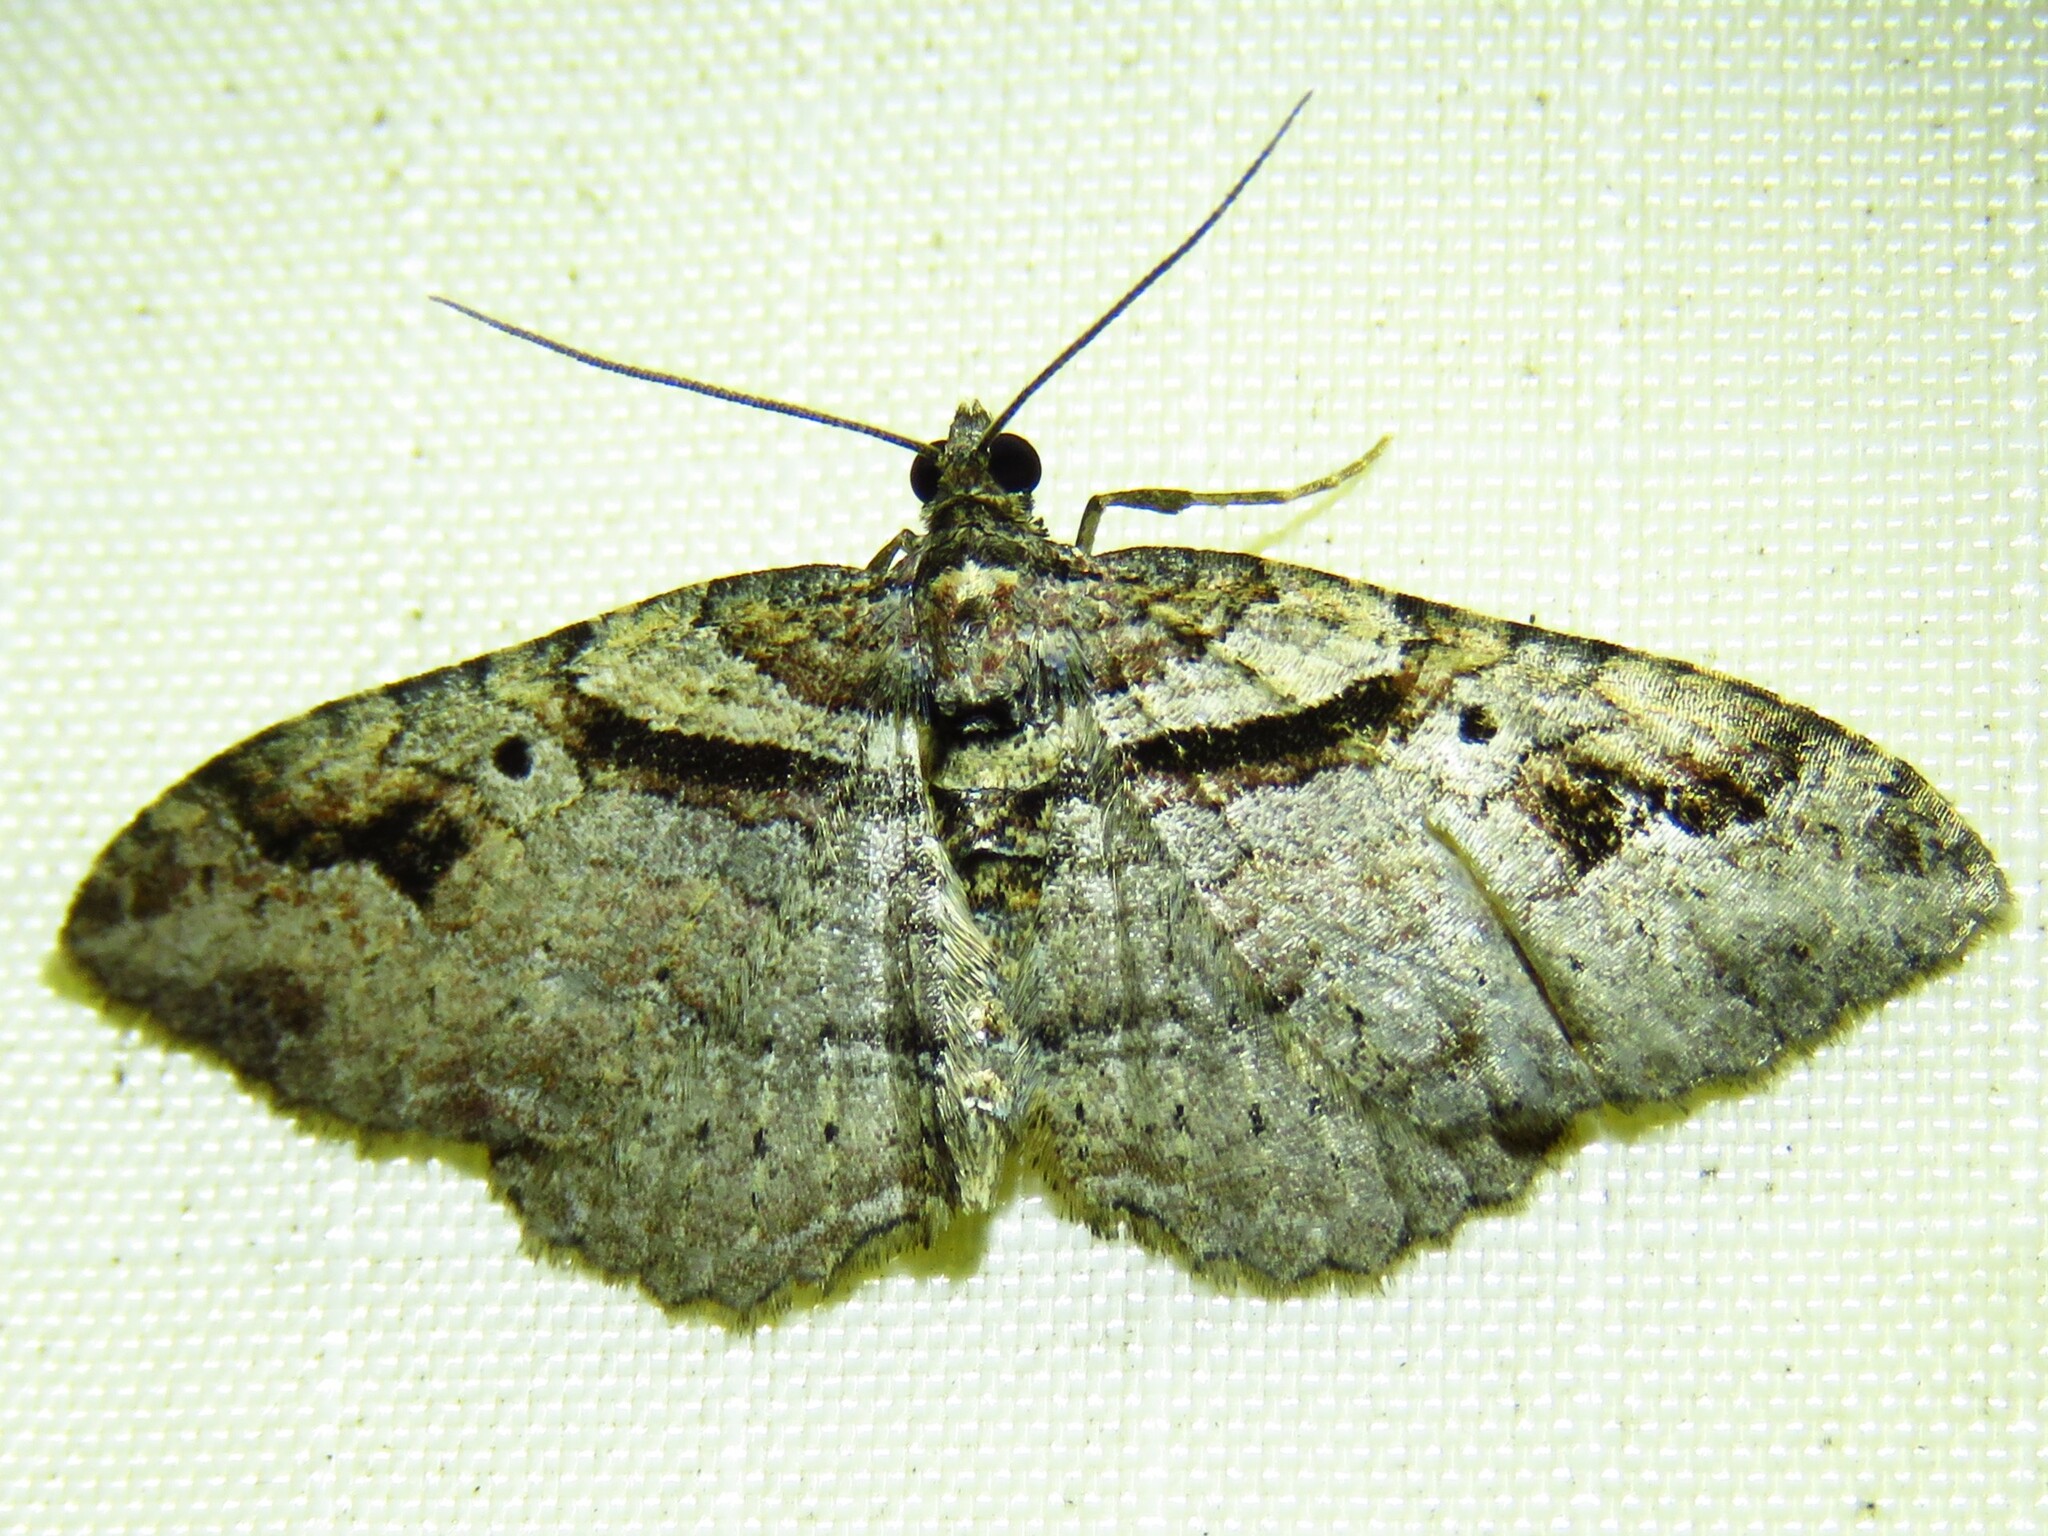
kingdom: Animalia
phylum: Arthropoda
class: Insecta
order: Lepidoptera
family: Geometridae
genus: Costaconvexa
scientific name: Costaconvexa centrostrigaria
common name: Bent-line carpet
